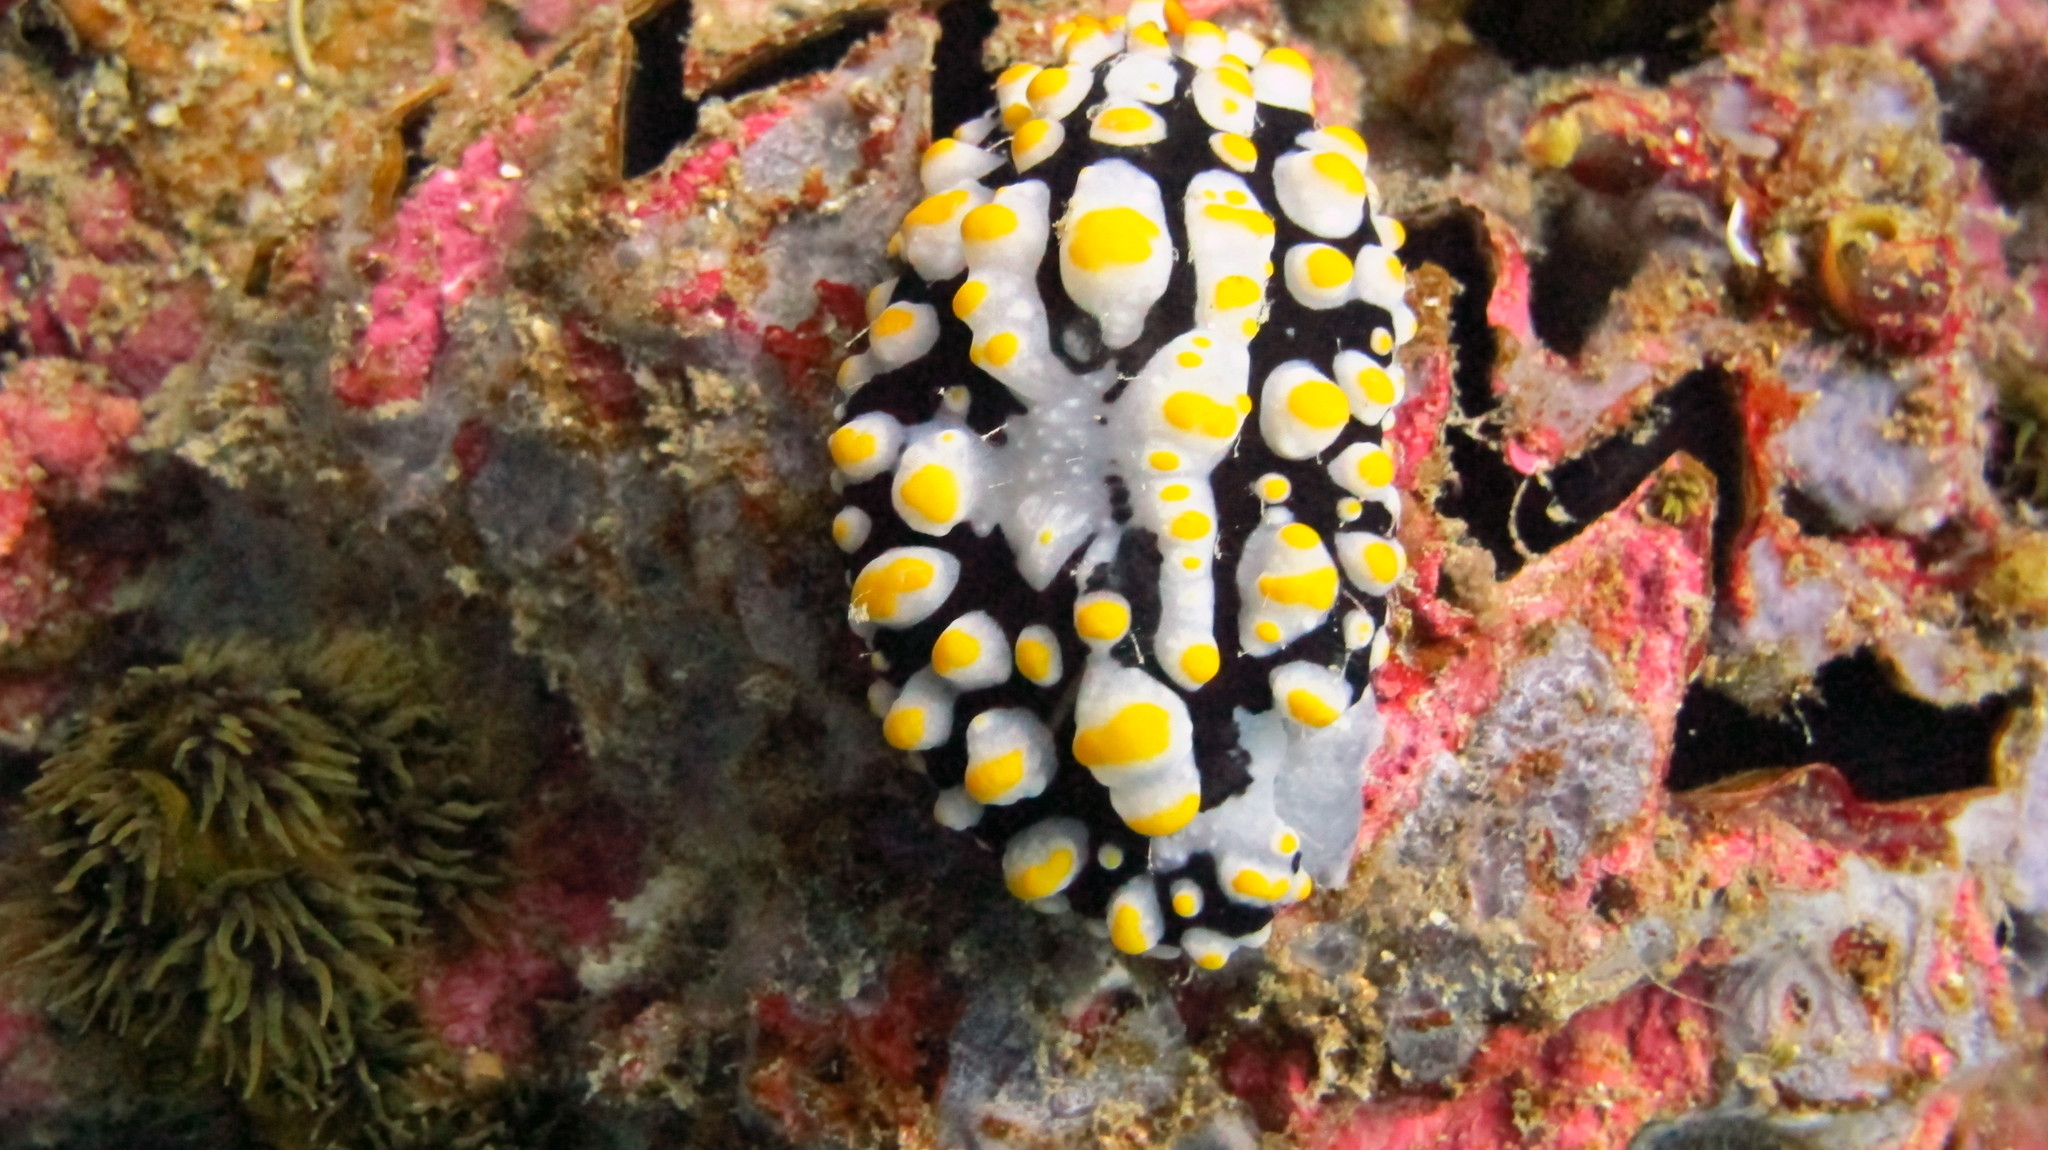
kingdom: Animalia
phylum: Mollusca
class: Gastropoda
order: Nudibranchia
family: Phyllidiidae
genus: Phyllidia
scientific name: Phyllidia varicosa
